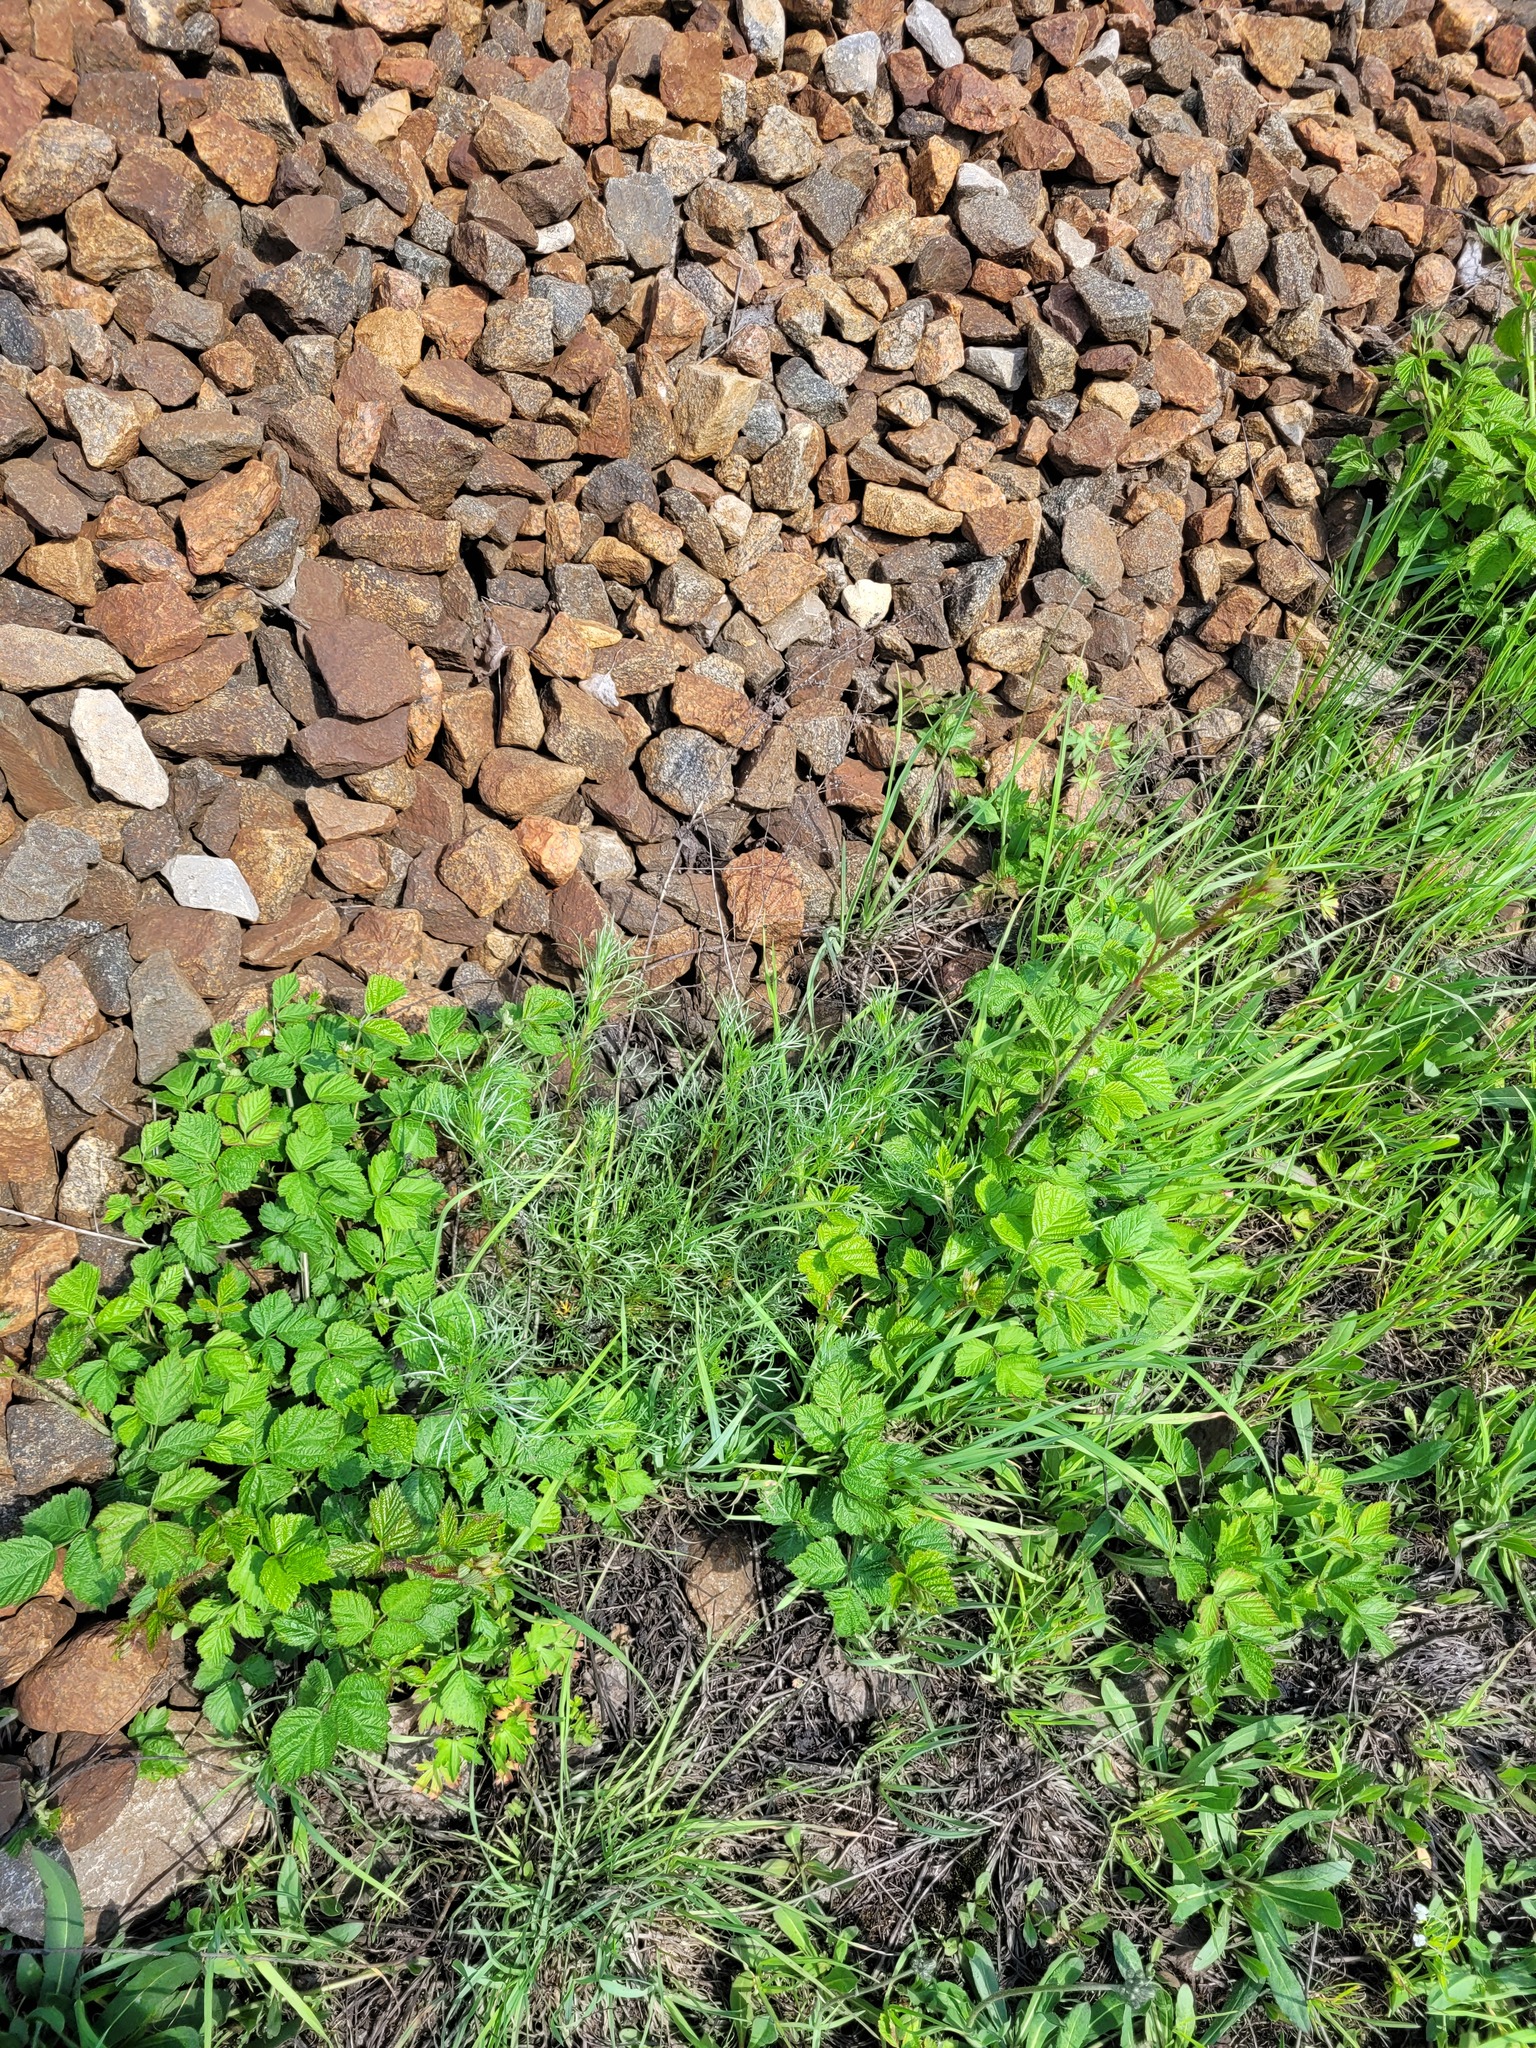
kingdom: Plantae
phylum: Tracheophyta
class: Magnoliopsida
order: Asterales
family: Asteraceae
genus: Artemisia
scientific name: Artemisia campestris
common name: Field wormwood
